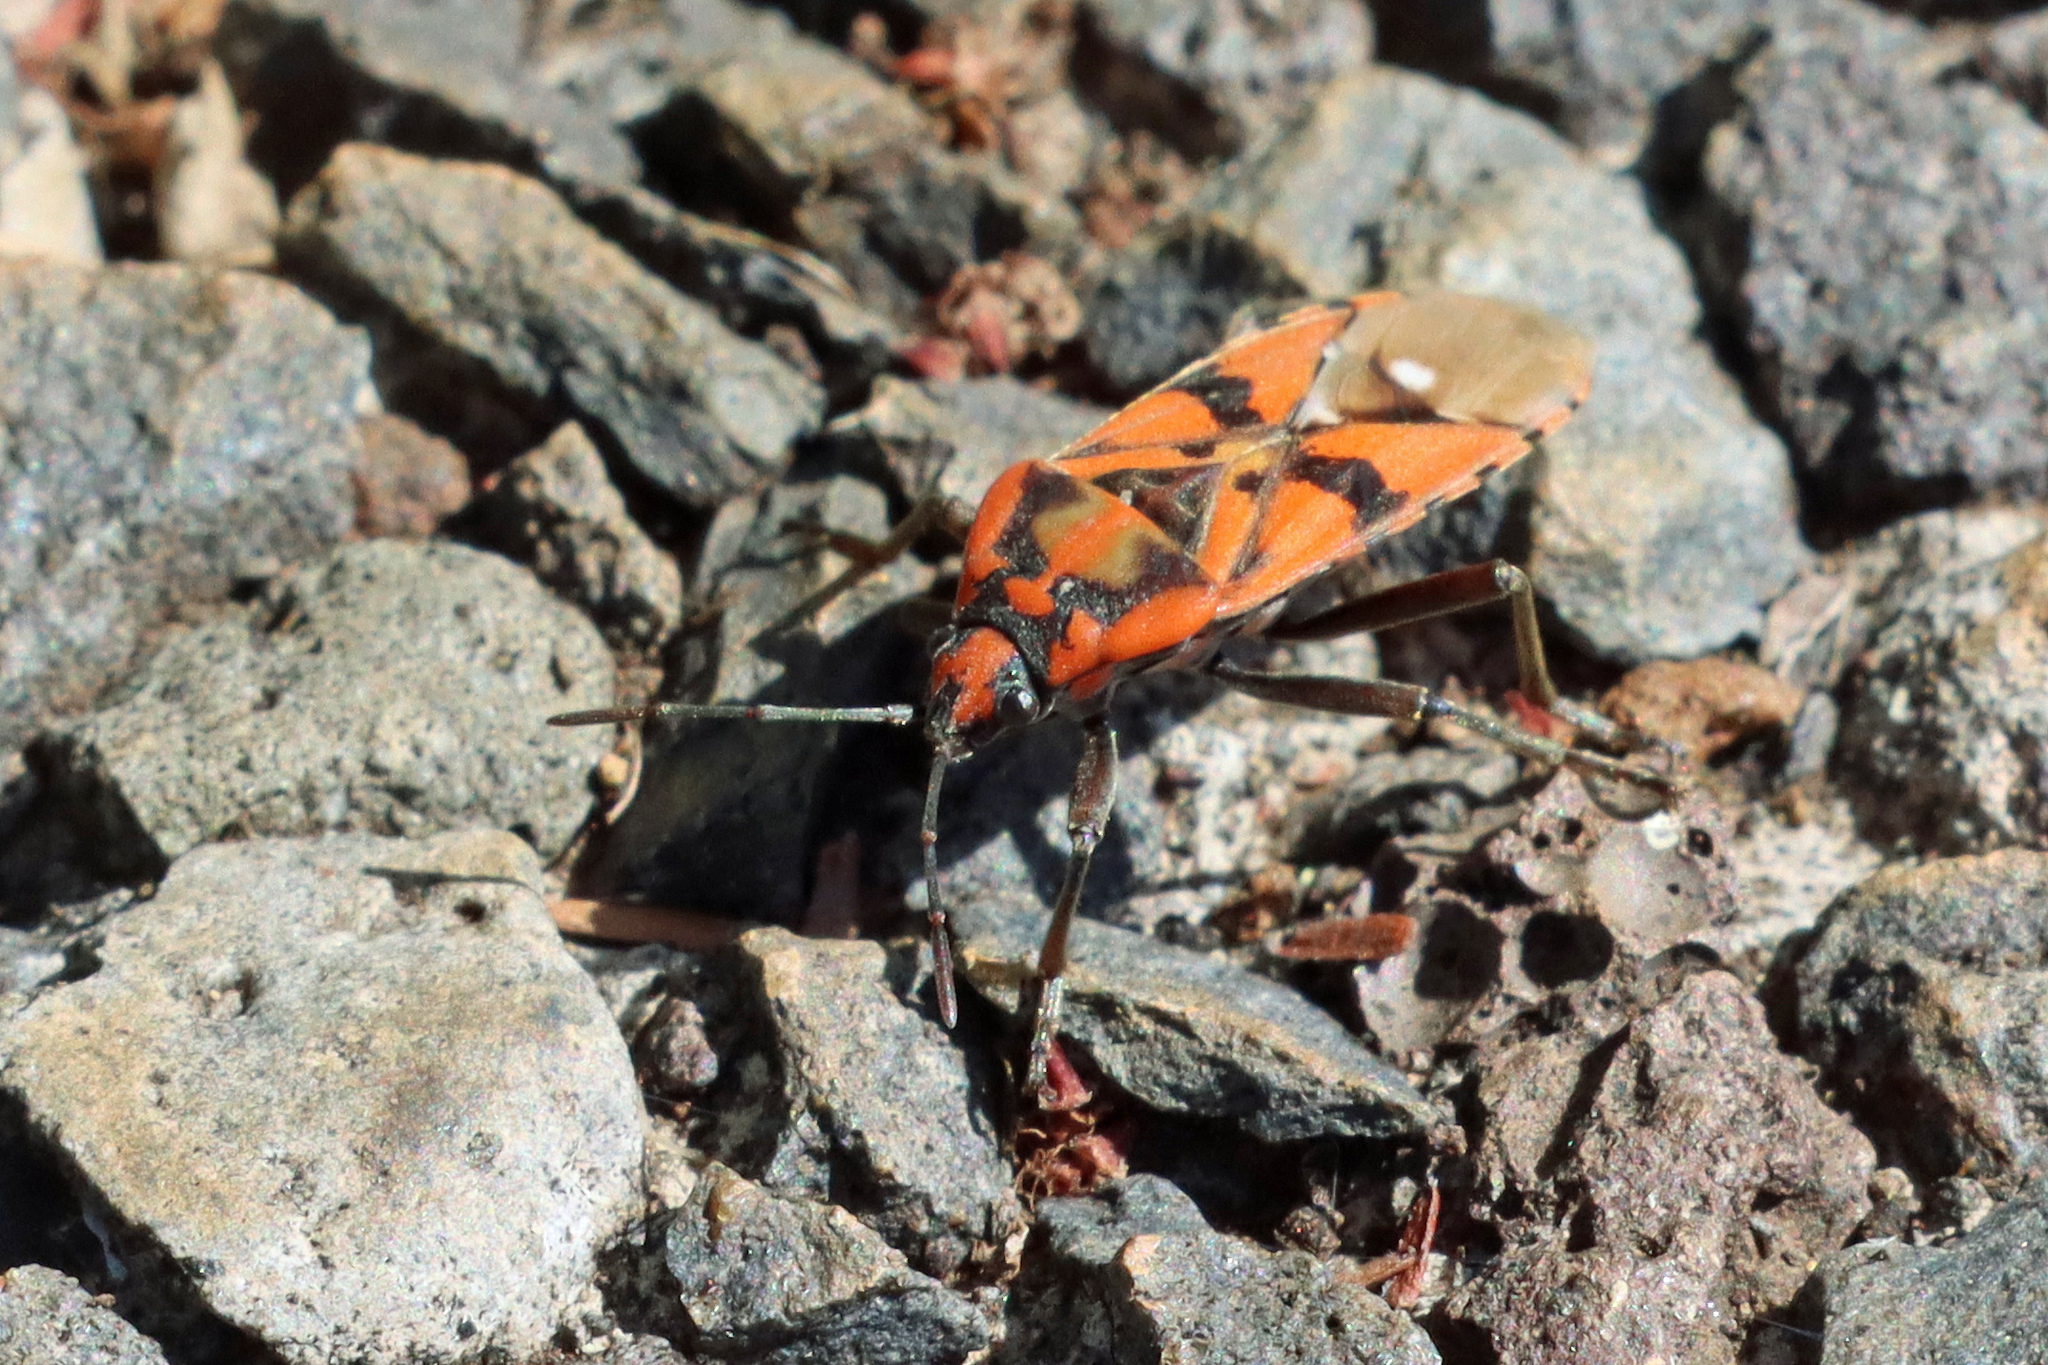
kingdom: Animalia
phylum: Arthropoda
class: Insecta
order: Hemiptera
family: Lygaeidae
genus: Spilostethus
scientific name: Spilostethus pandurus
